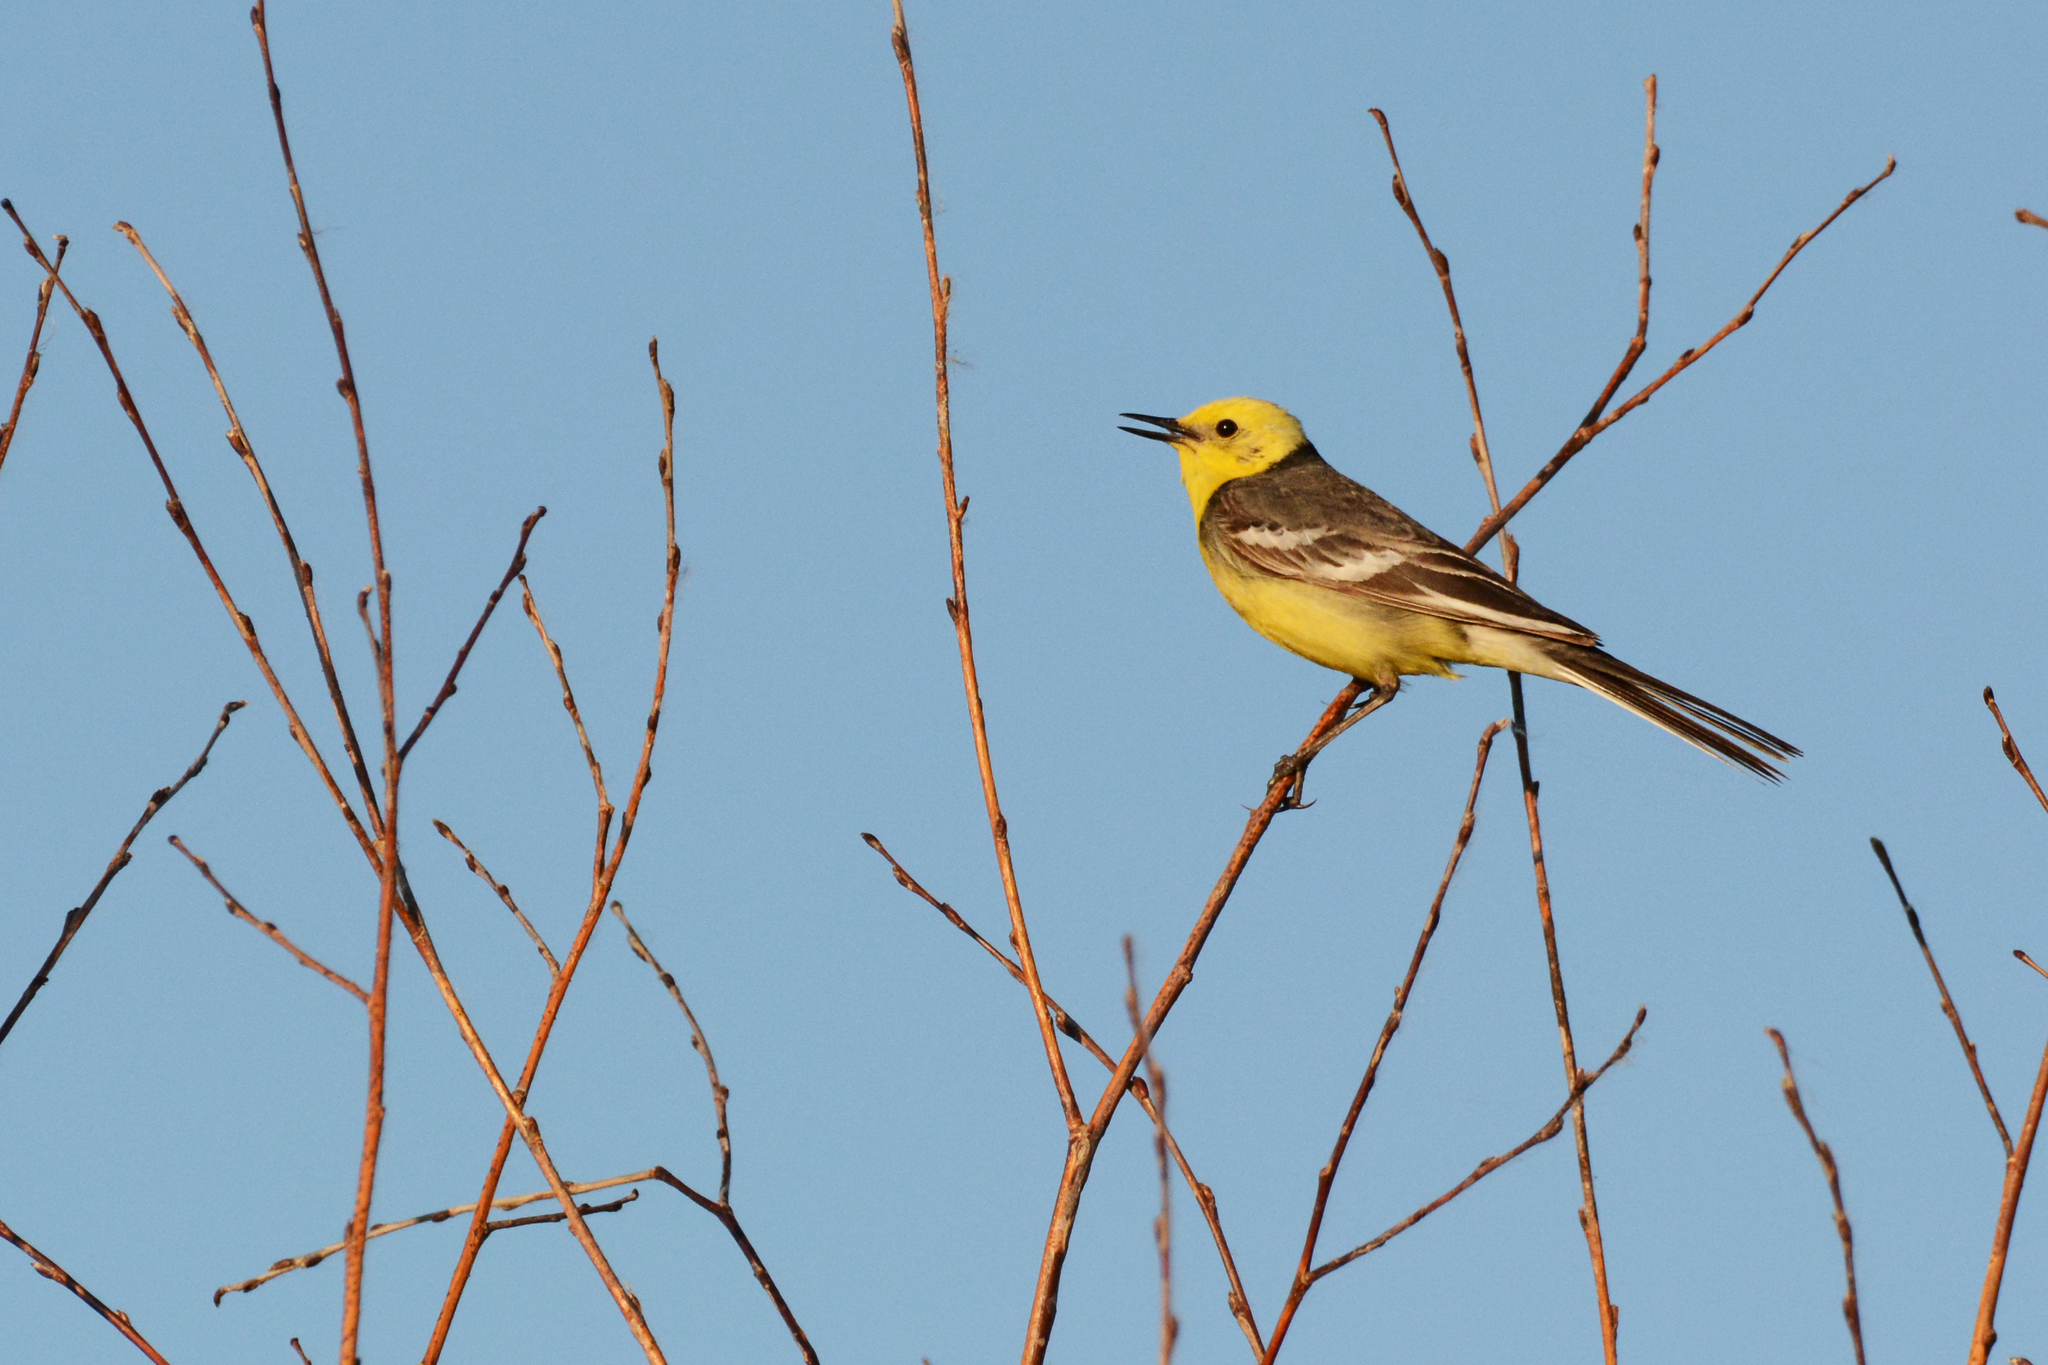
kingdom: Animalia
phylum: Chordata
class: Aves
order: Passeriformes
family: Motacillidae
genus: Motacilla
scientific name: Motacilla citreola
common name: Citrine wagtail
